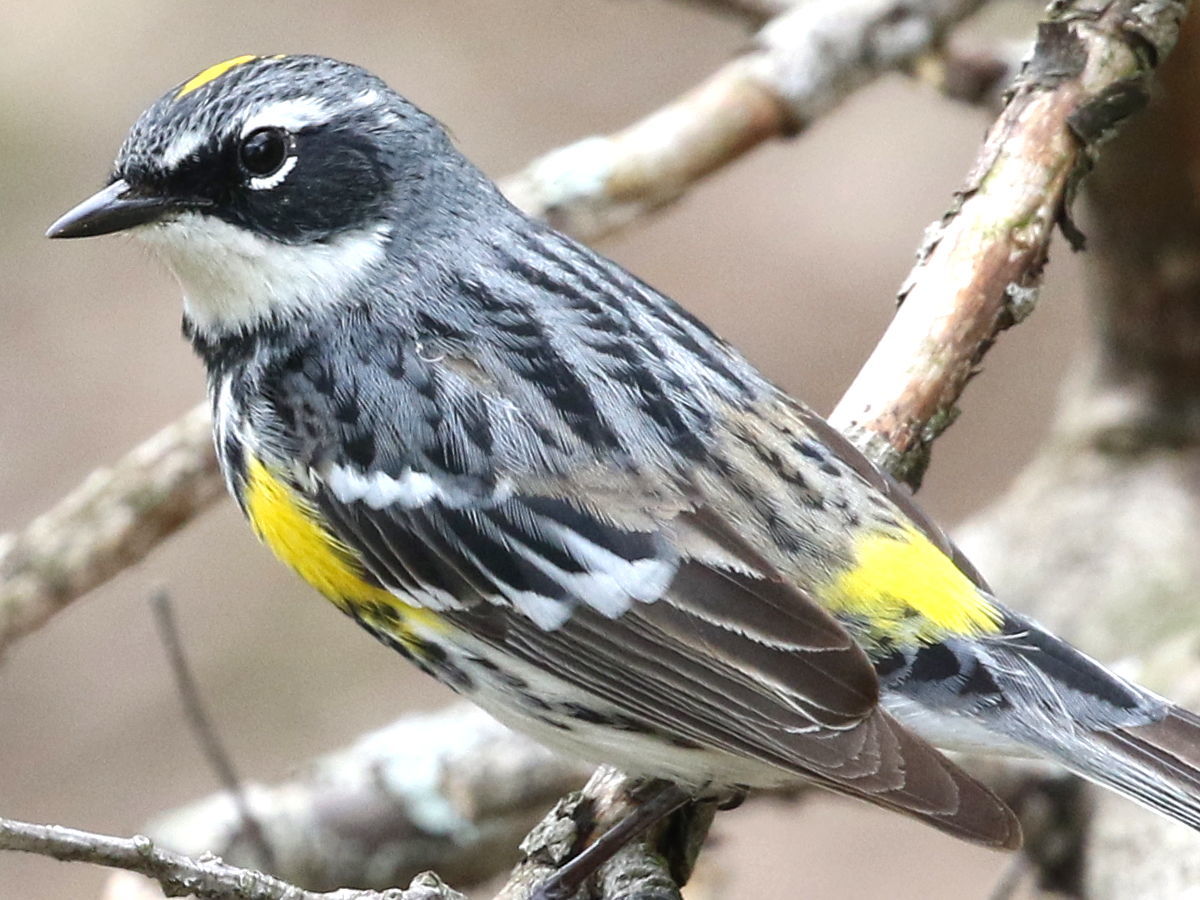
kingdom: Animalia
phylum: Chordata
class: Aves
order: Passeriformes
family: Parulidae
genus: Setophaga
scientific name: Setophaga coronata
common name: Myrtle warbler
